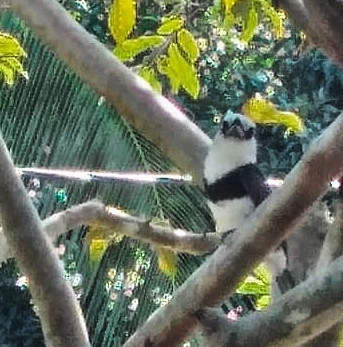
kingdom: Animalia
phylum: Chordata
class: Aves
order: Piciformes
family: Bucconidae
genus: Notharchus
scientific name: Notharchus hyperrhynchus
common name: White-necked puffbird
